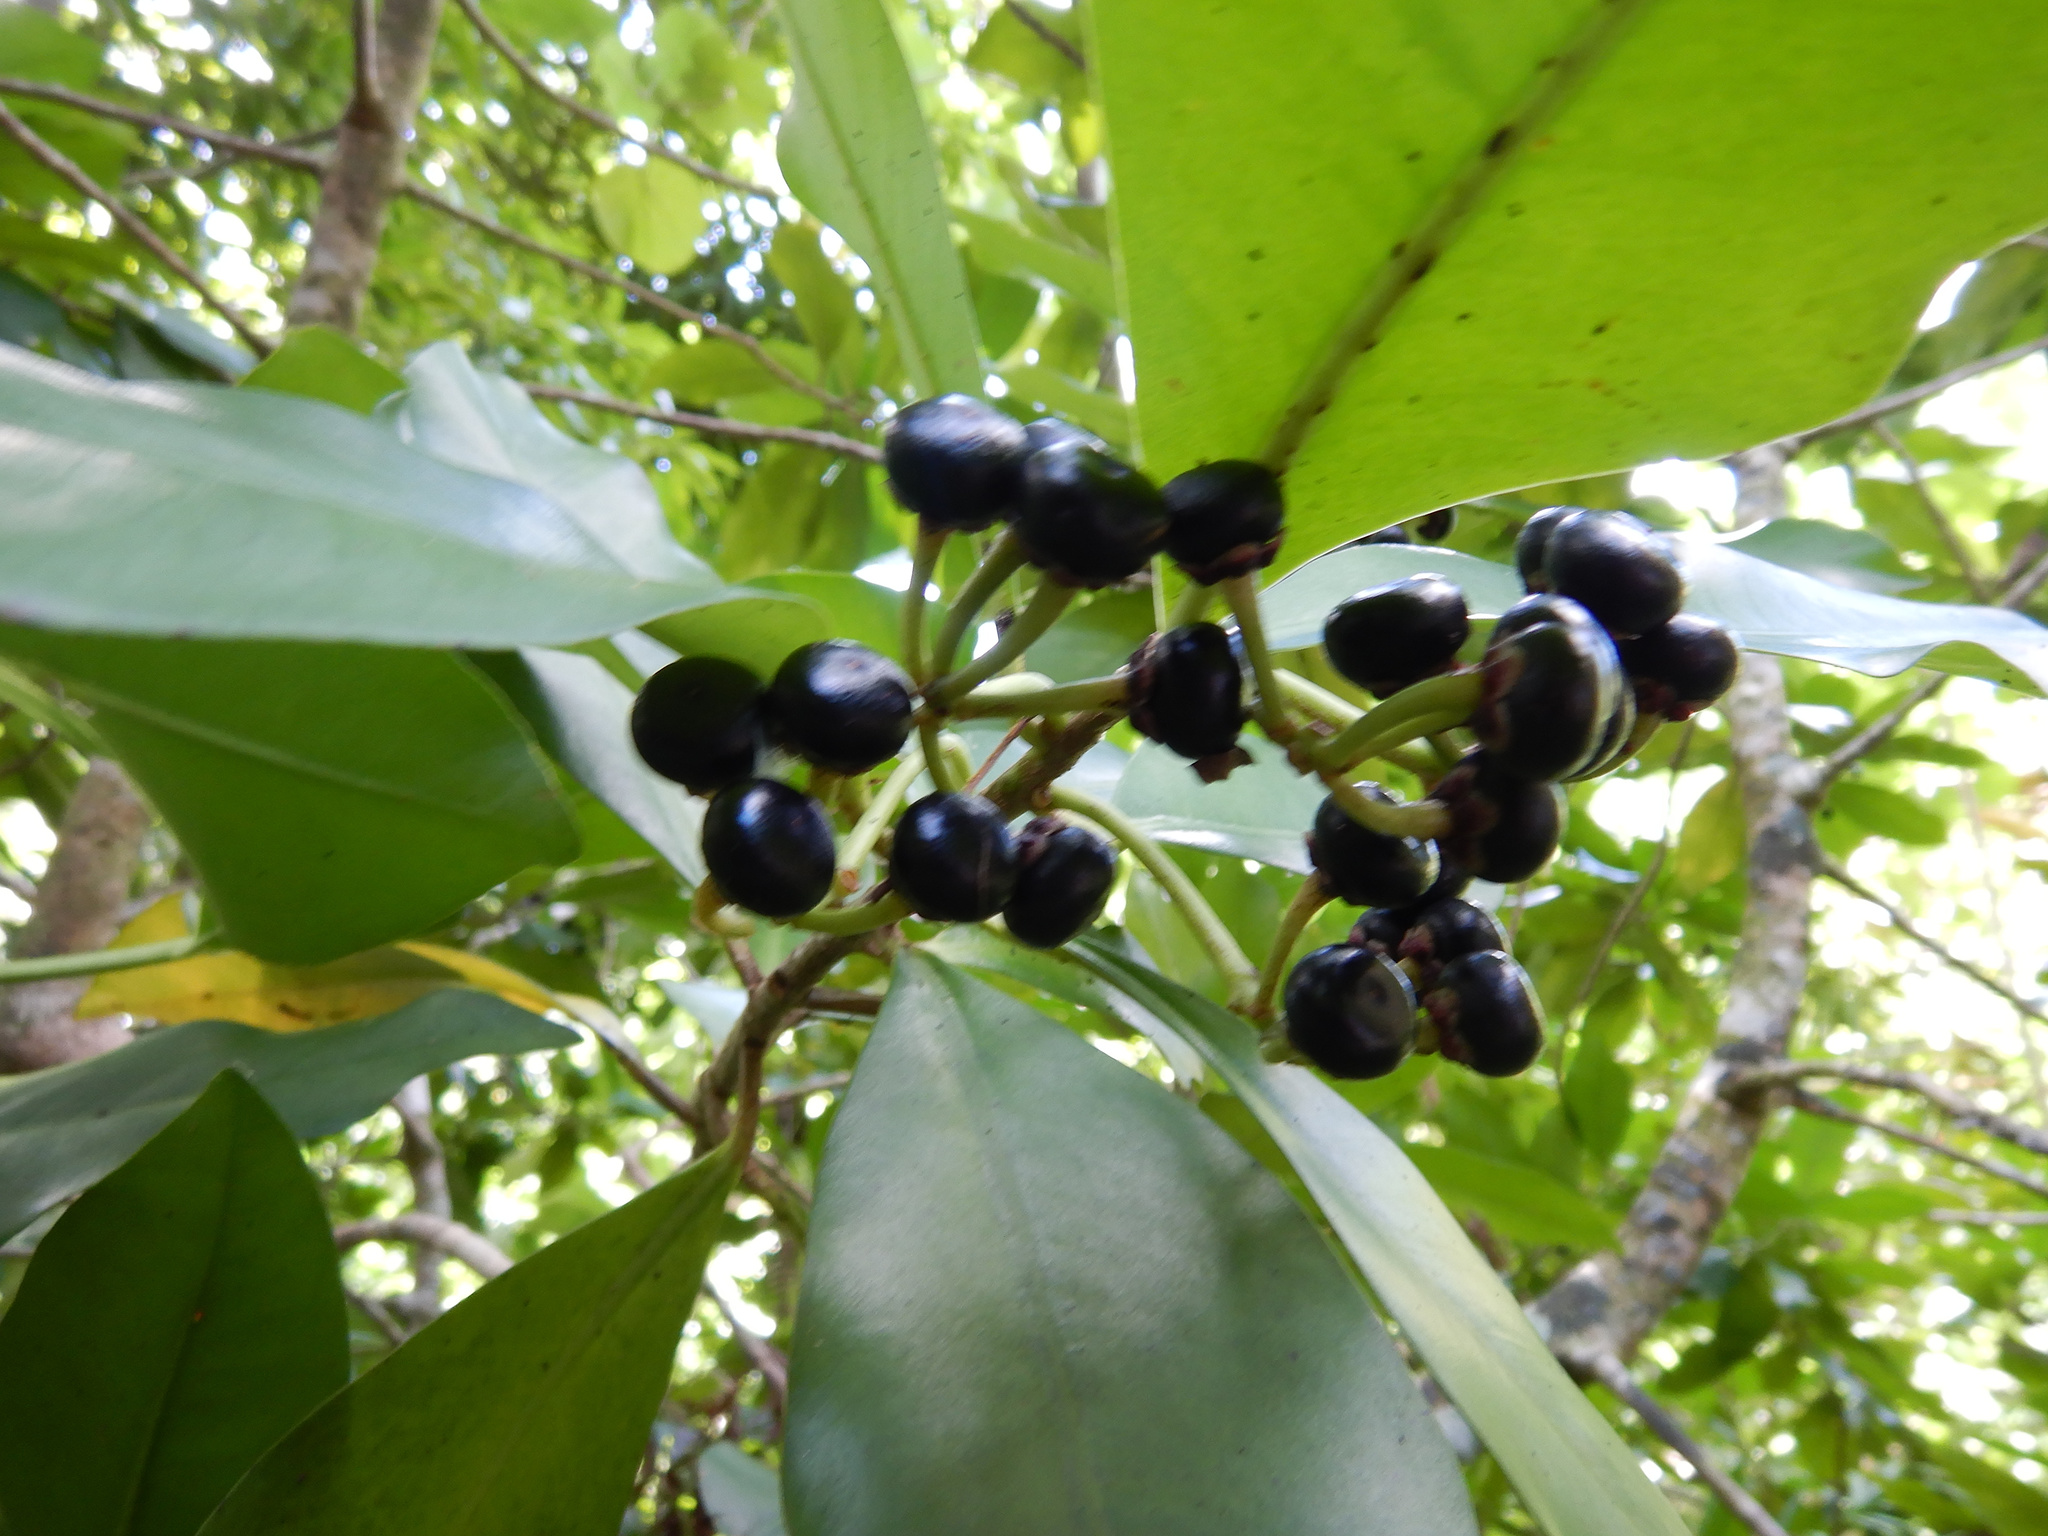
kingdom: Plantae
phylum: Tracheophyta
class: Magnoliopsida
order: Ericales
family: Primulaceae
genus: Ardisia
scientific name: Ardisia elliptica
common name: Shoebutton
